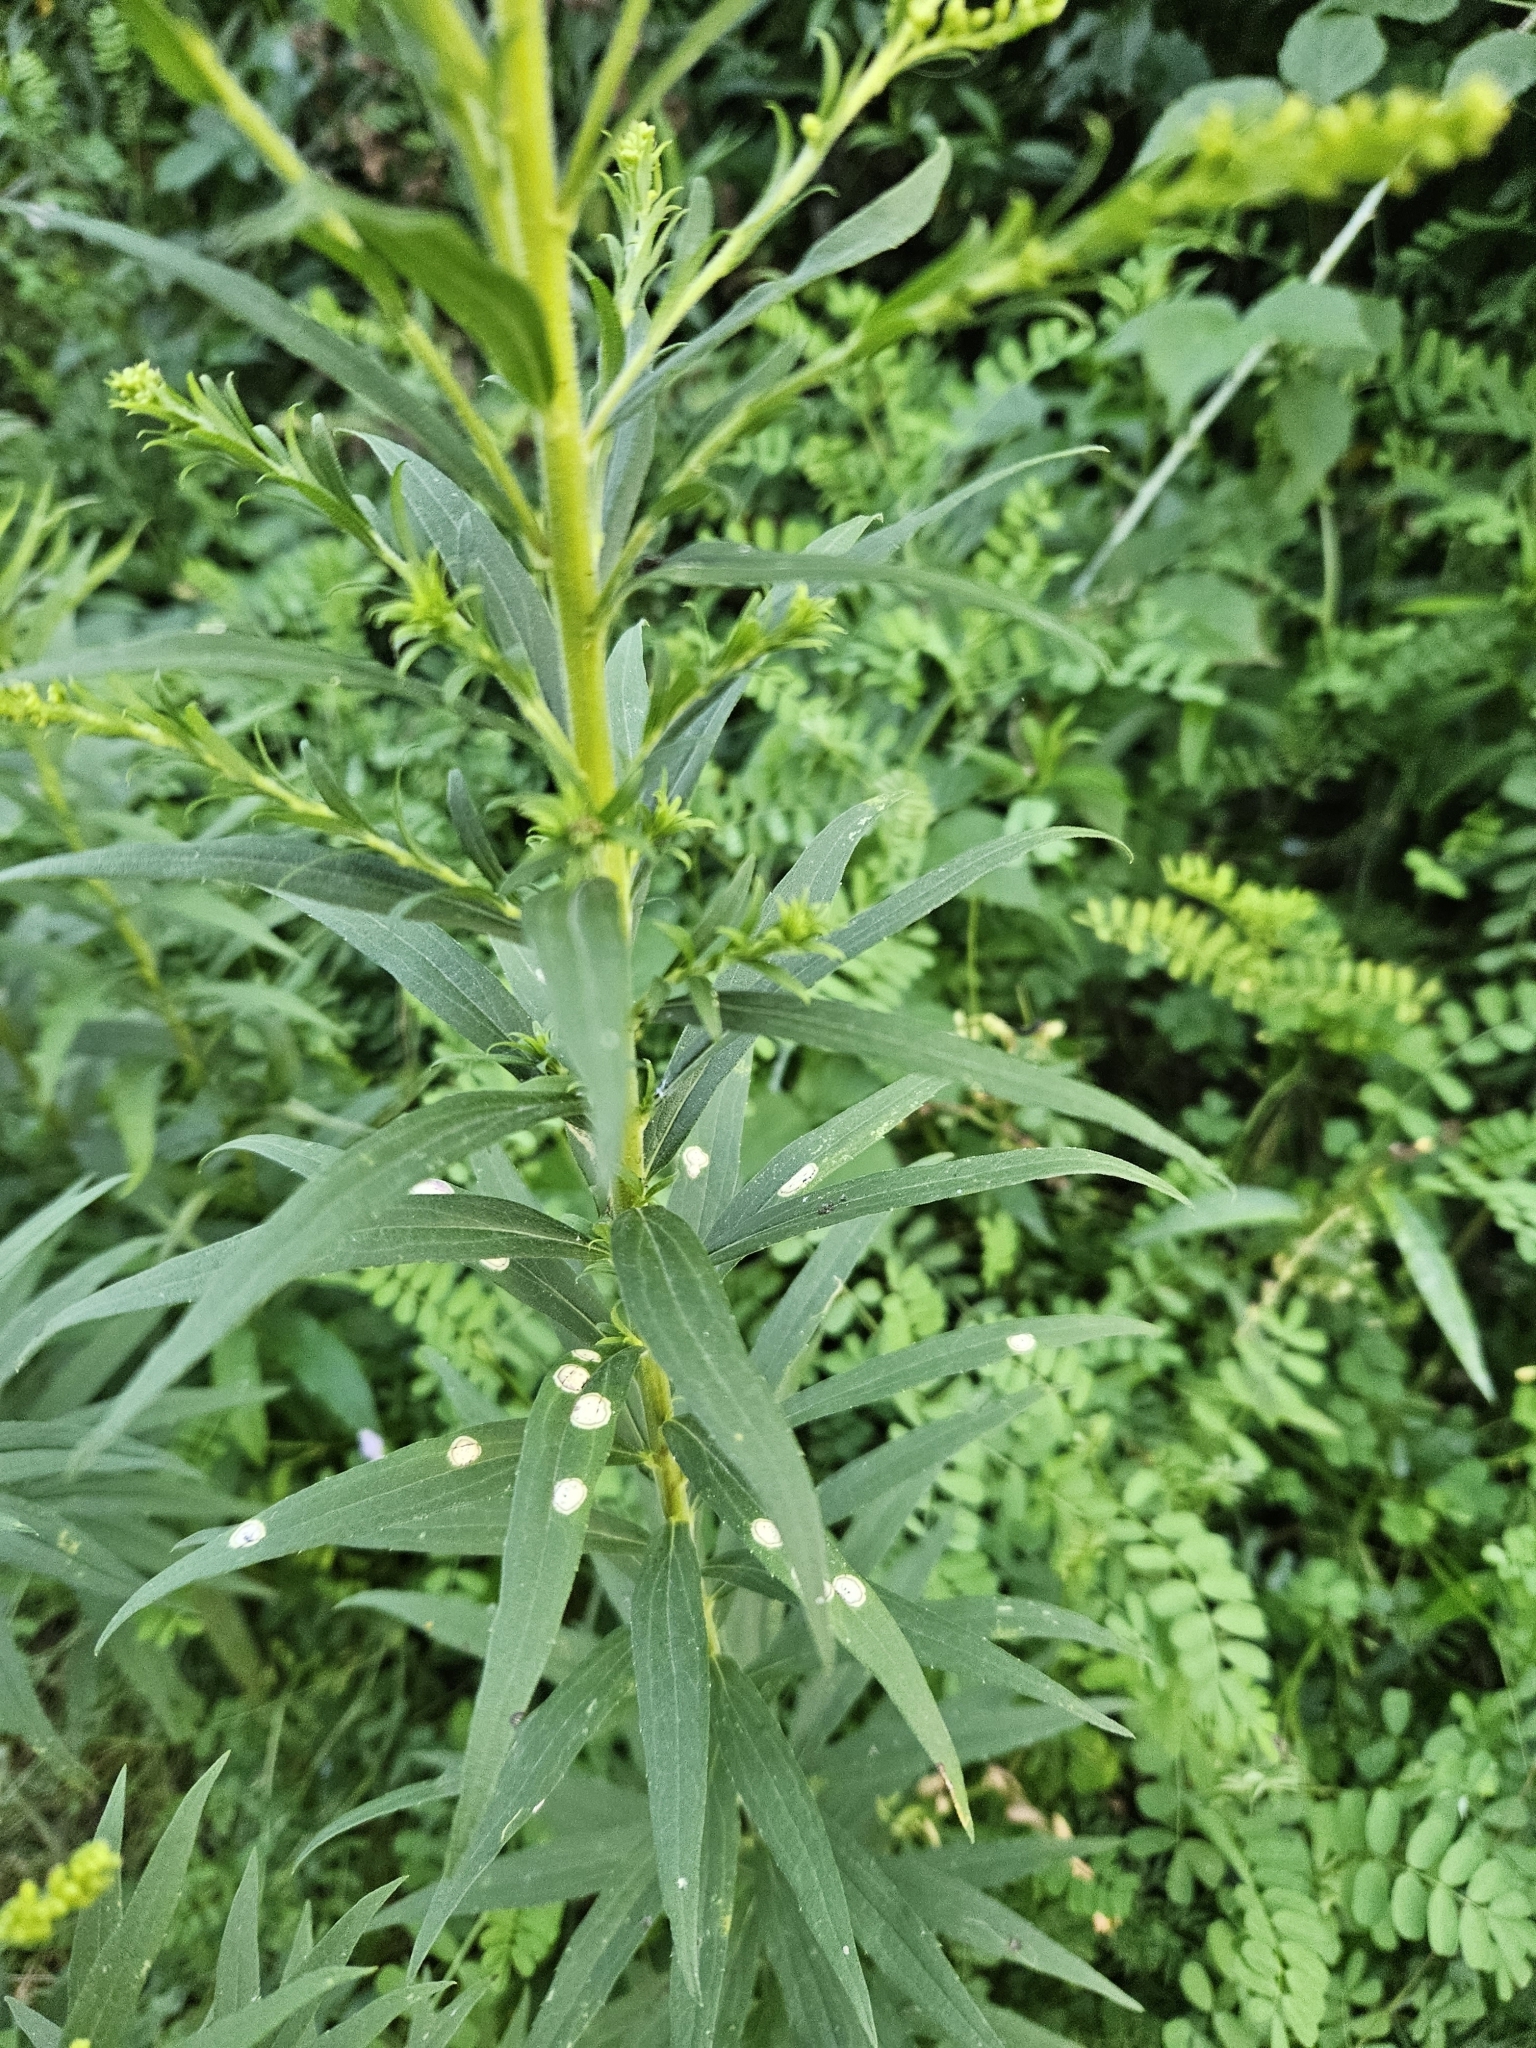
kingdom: Animalia
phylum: Arthropoda
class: Insecta
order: Diptera
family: Cecidomyiidae
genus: Asteromyia
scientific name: Asteromyia carbonifera
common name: Carbonifera goldenrod gall midge
